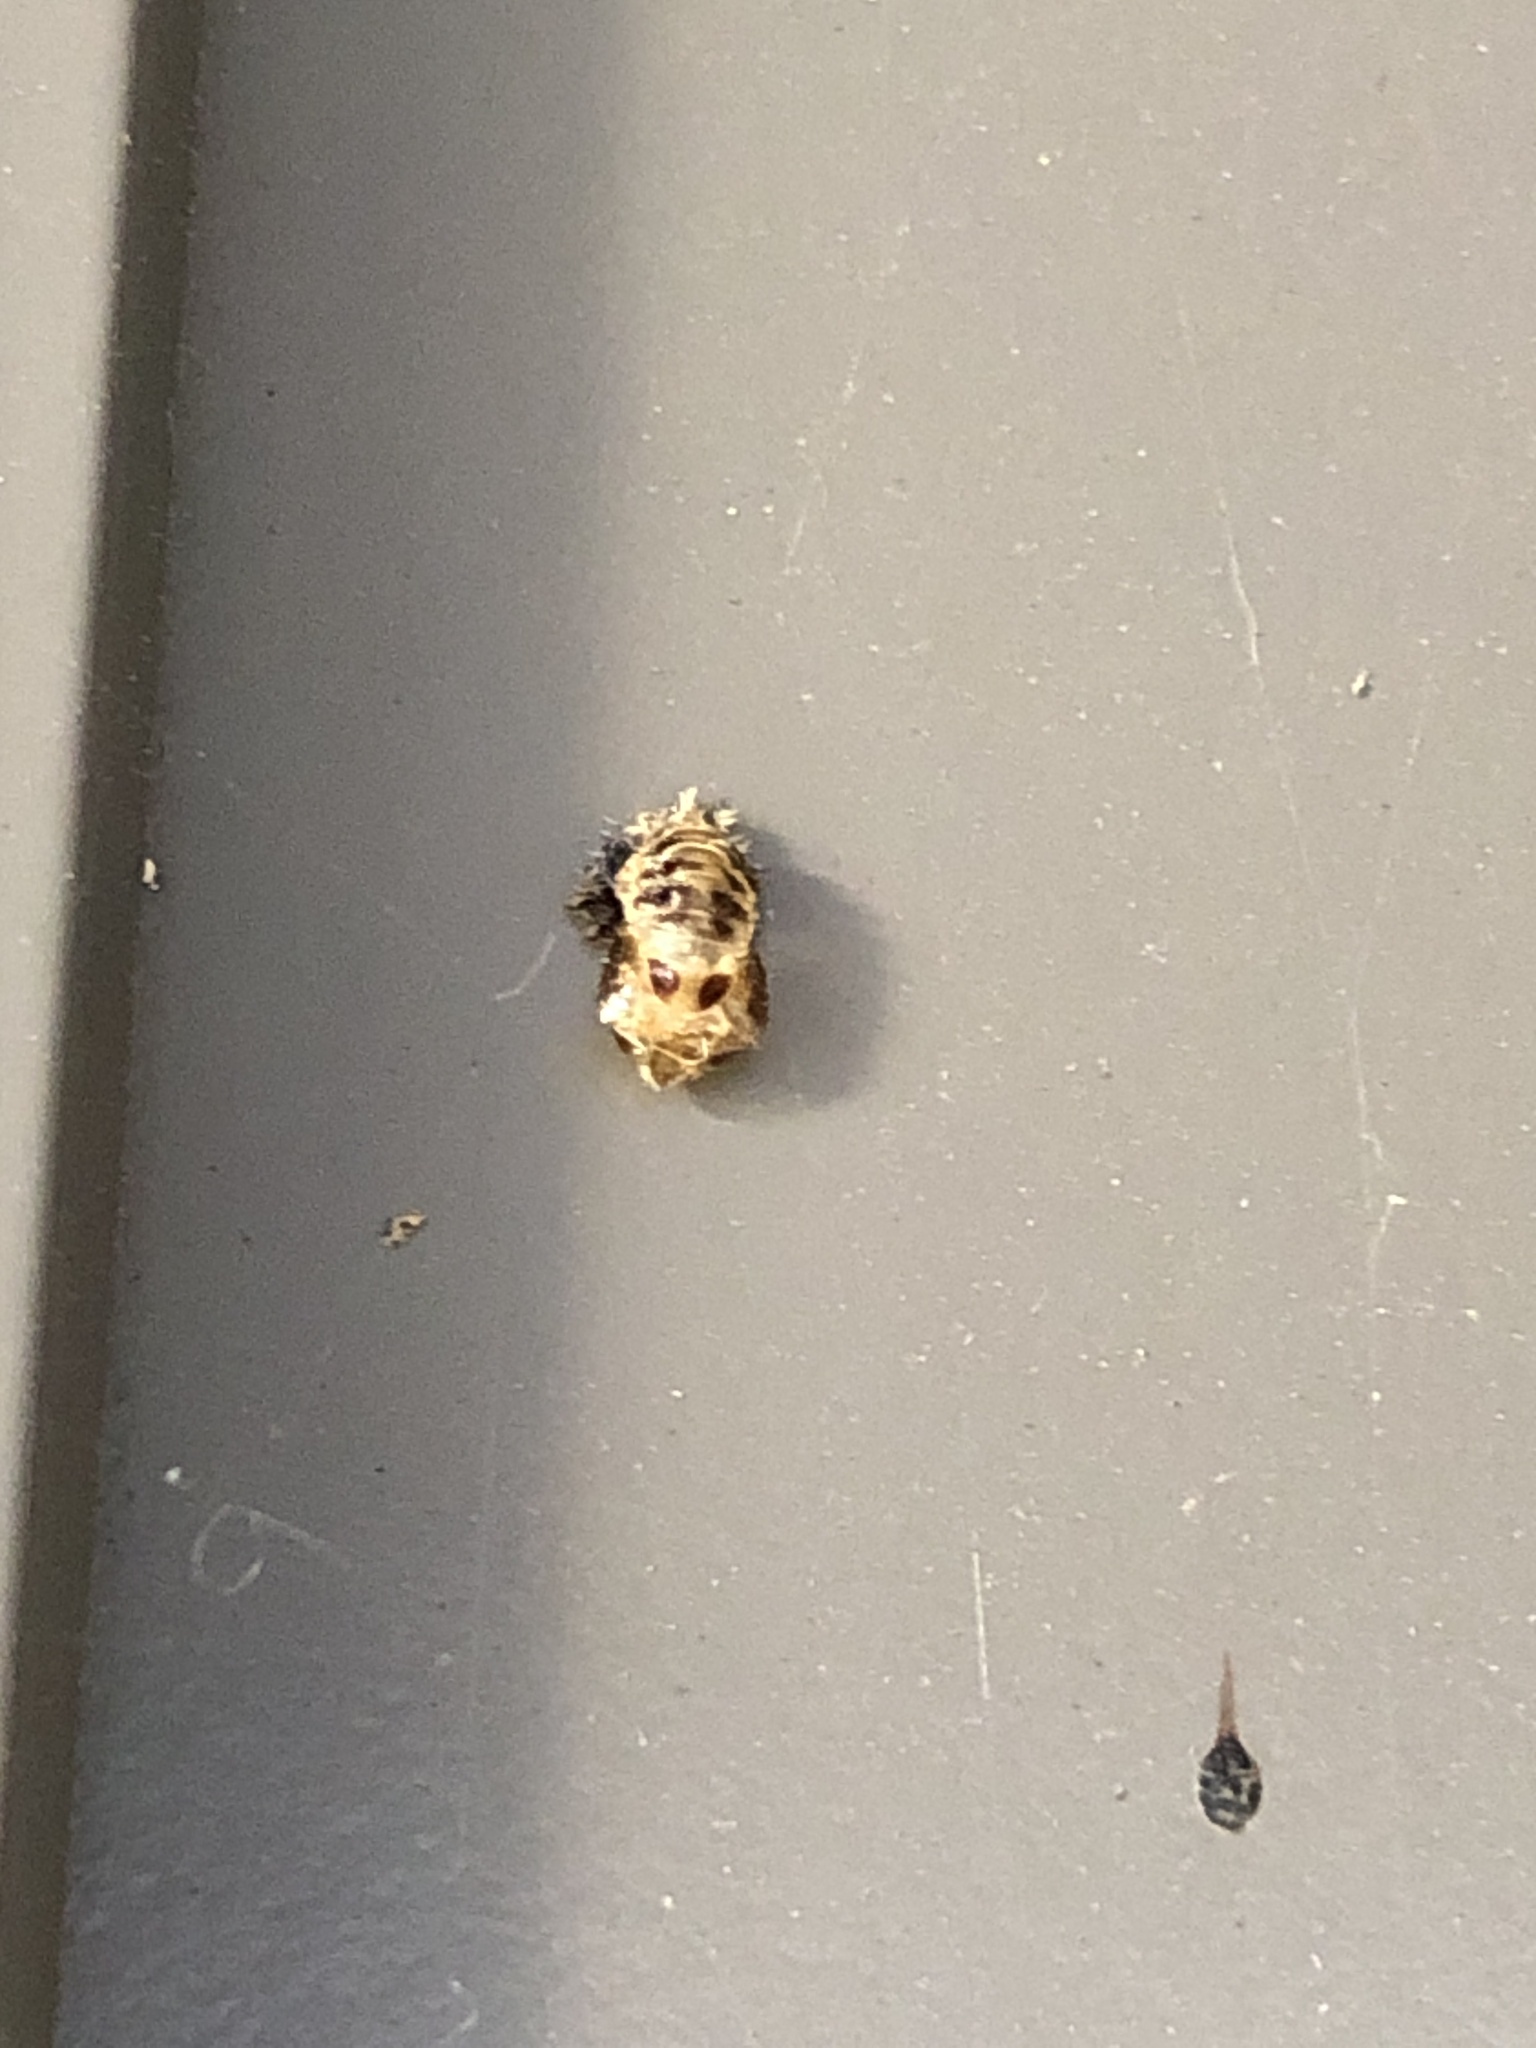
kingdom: Animalia
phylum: Arthropoda
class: Insecta
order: Coleoptera
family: Coccinellidae
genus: Harmonia
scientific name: Harmonia axyridis
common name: Harlequin ladybird
